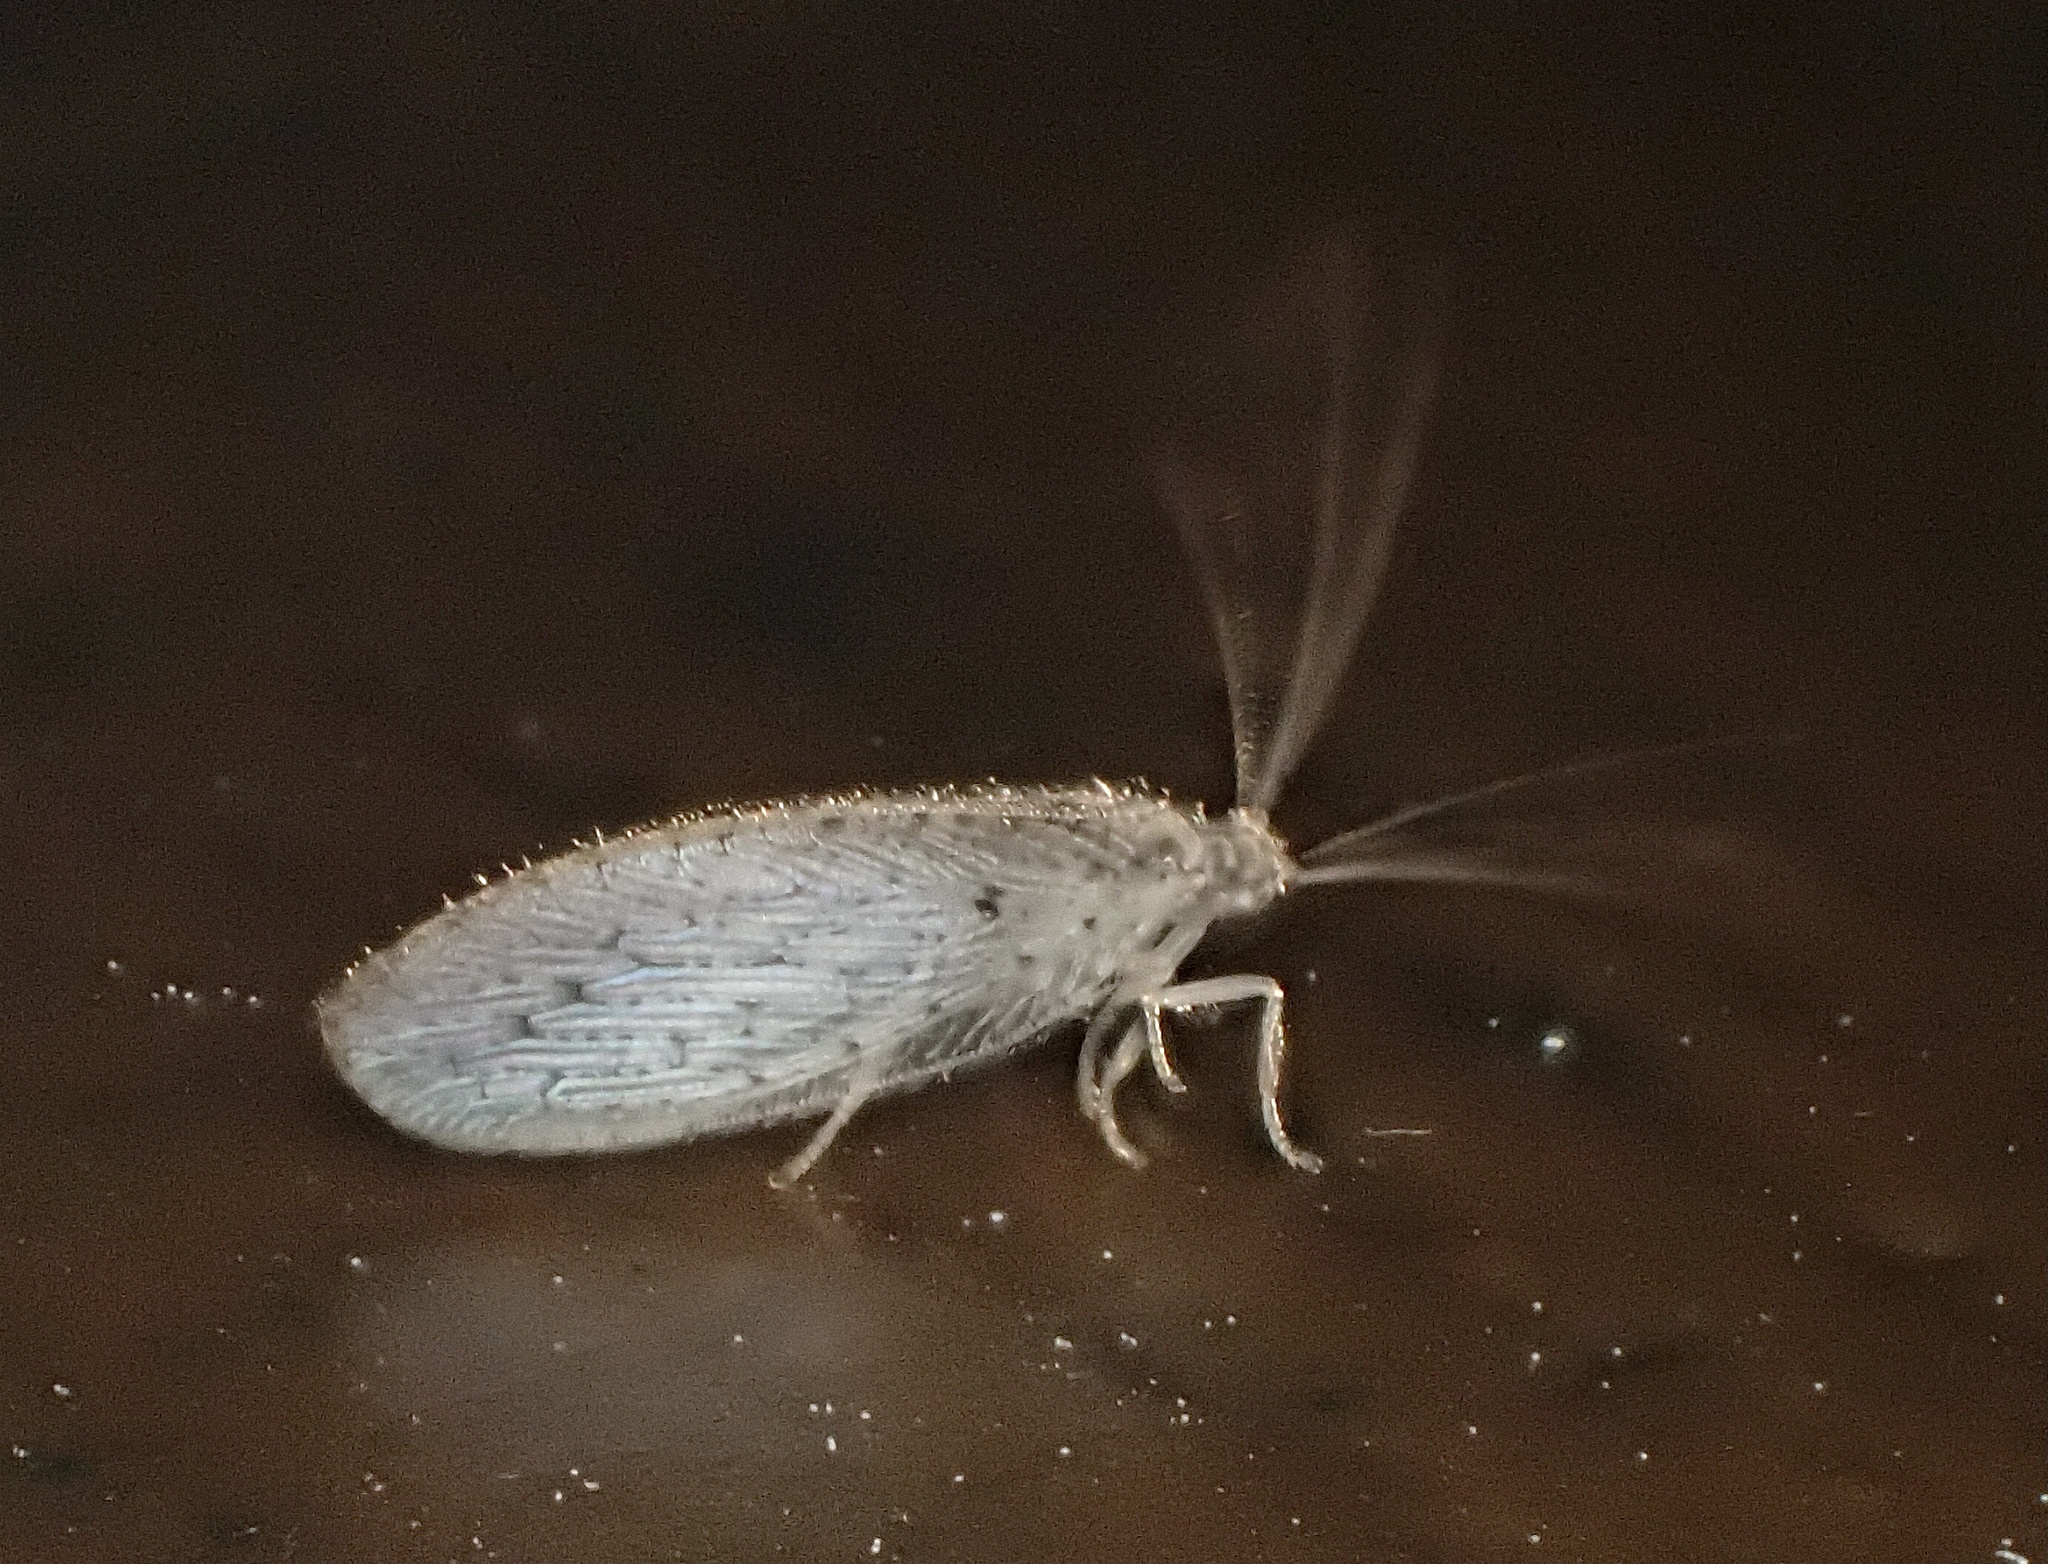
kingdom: Animalia
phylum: Arthropoda
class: Insecta
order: Neuroptera
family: Hemerobiidae
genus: Micromus
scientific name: Micromus subanticus
